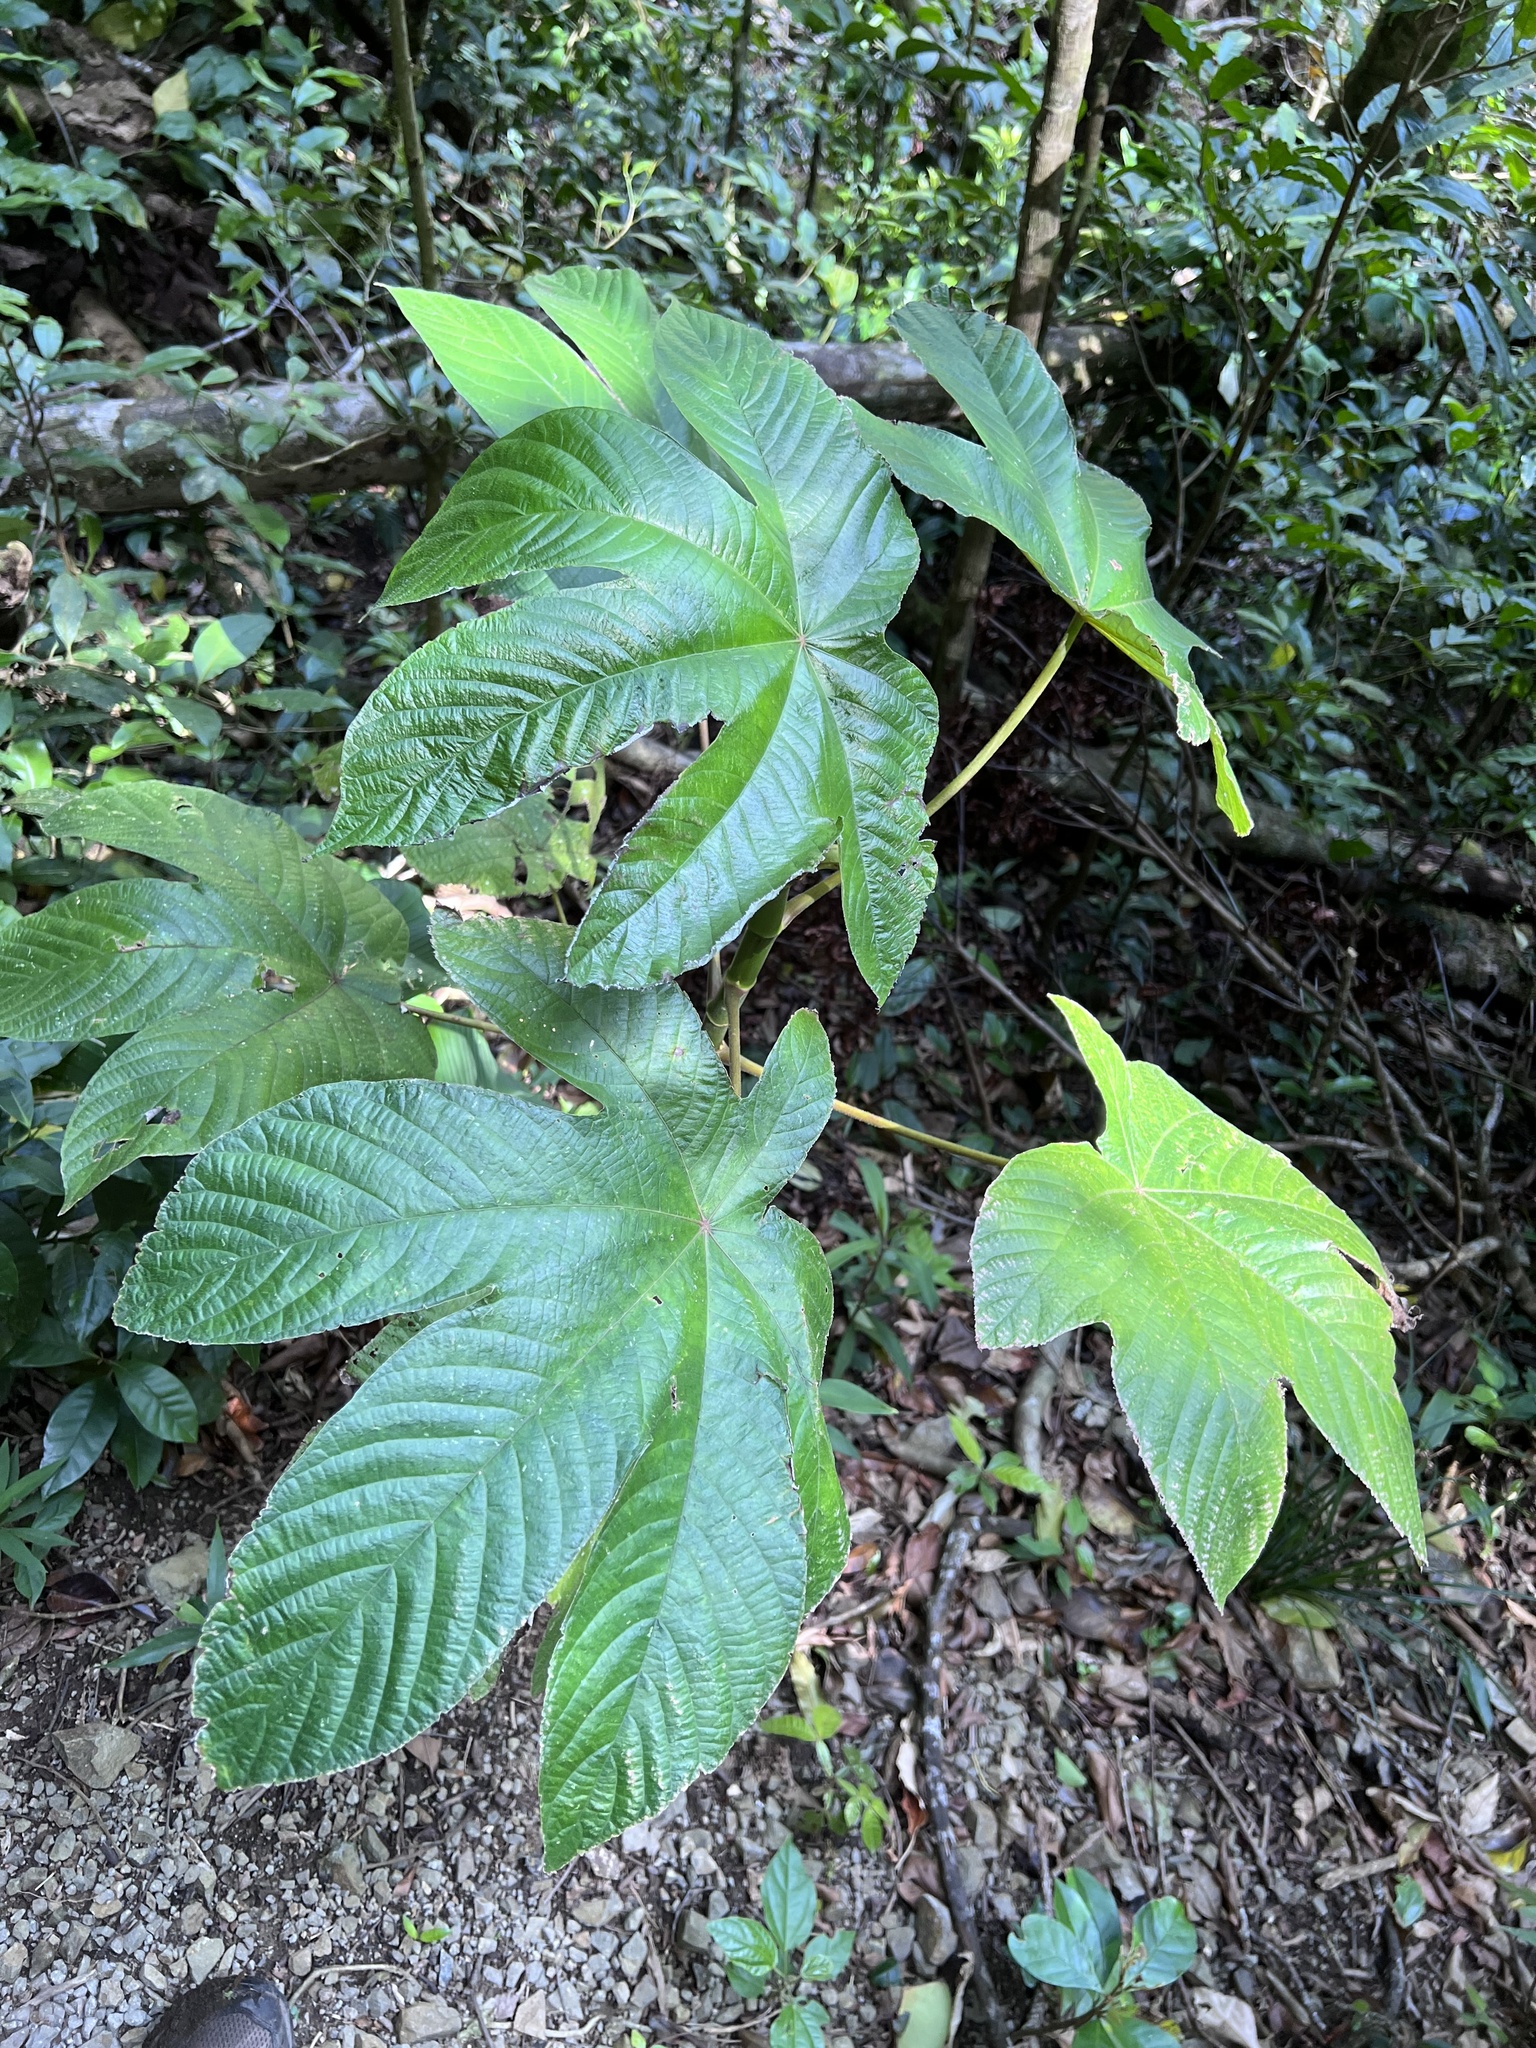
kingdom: Plantae
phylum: Tracheophyta
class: Magnoliopsida
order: Rosales
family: Urticaceae
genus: Cecropia
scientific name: Cecropia insignis
